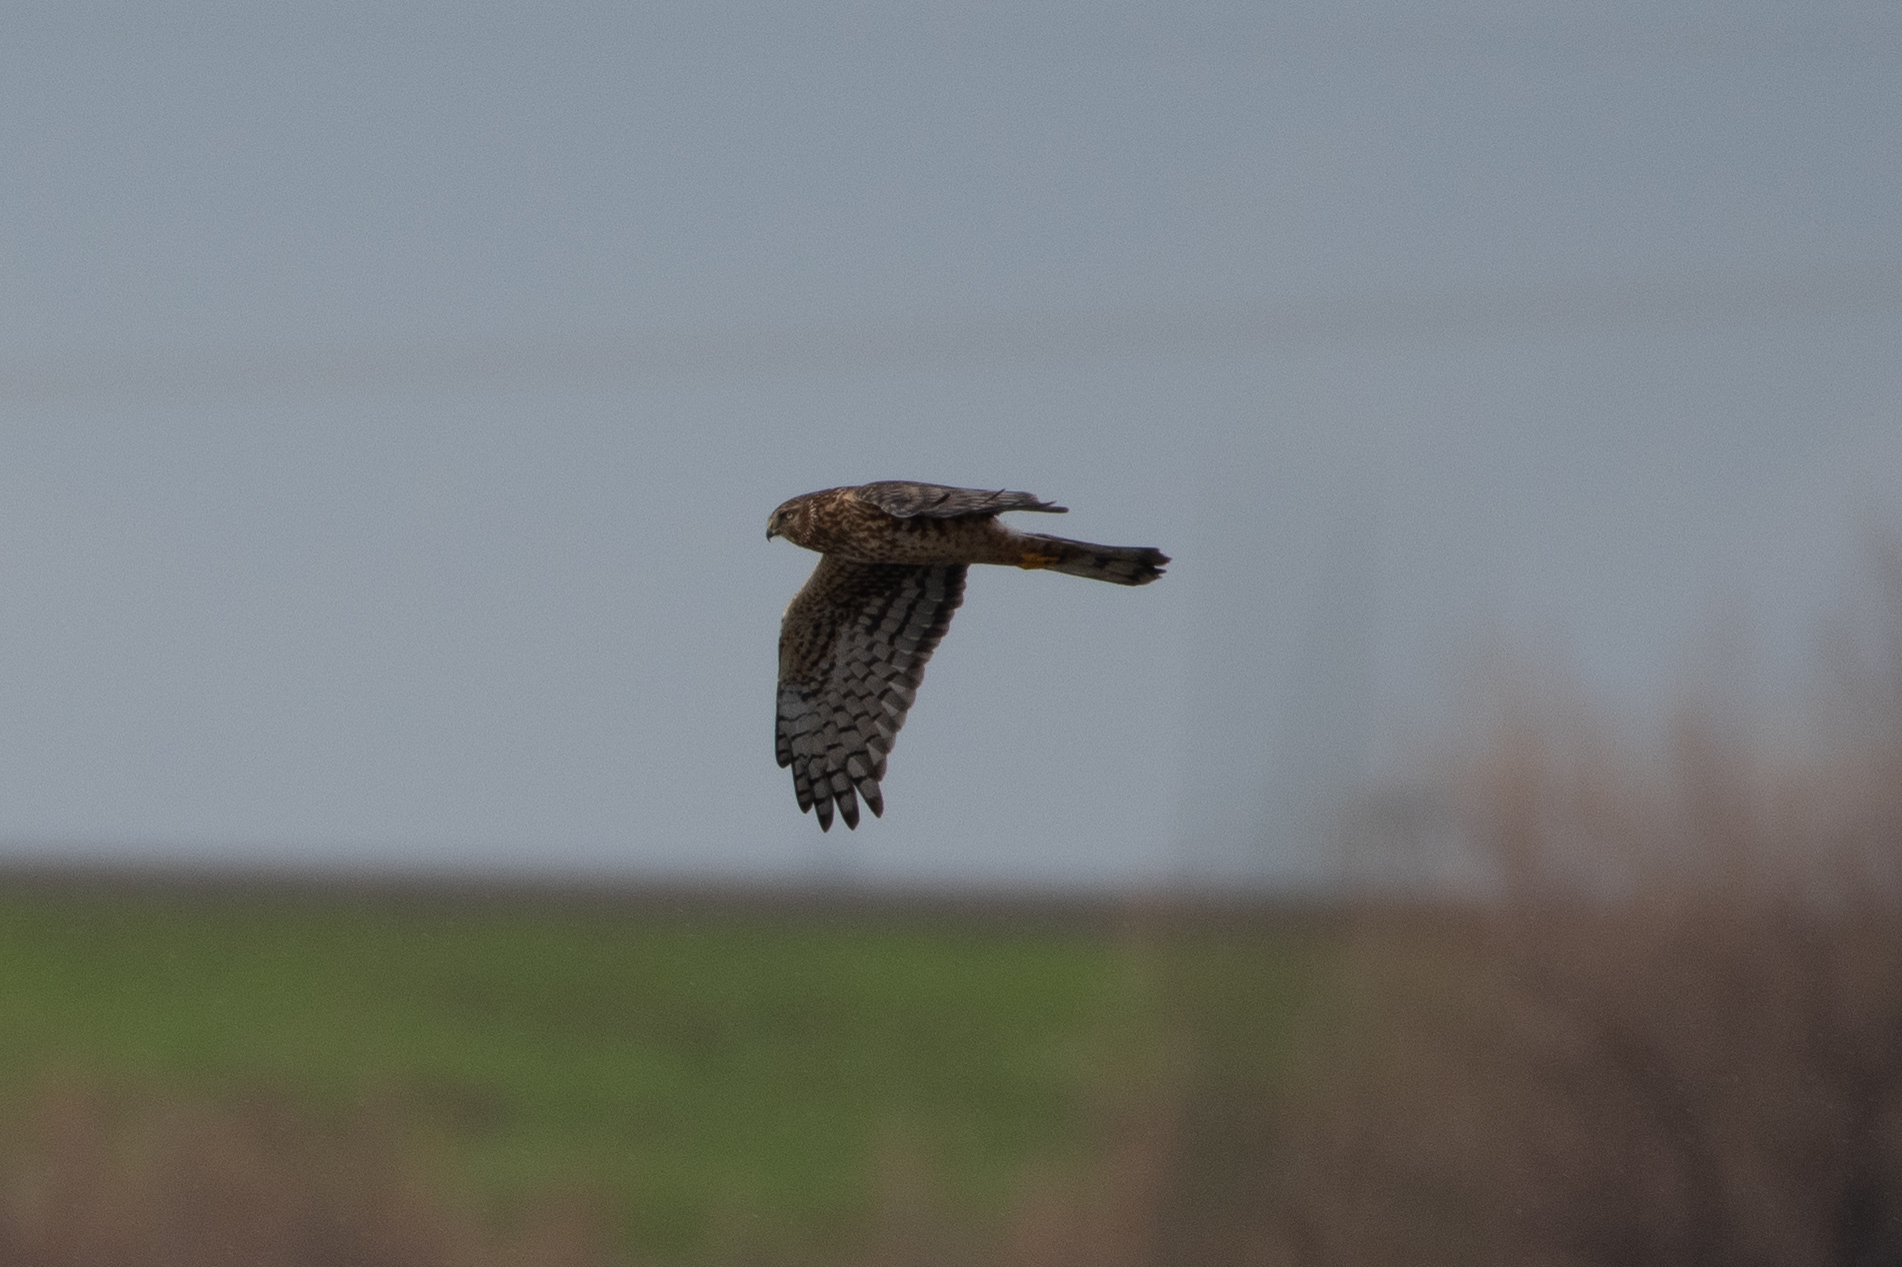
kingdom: Animalia
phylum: Chordata
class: Aves
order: Accipitriformes
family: Accipitridae
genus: Circus
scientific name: Circus cyaneus
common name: Hen harrier
